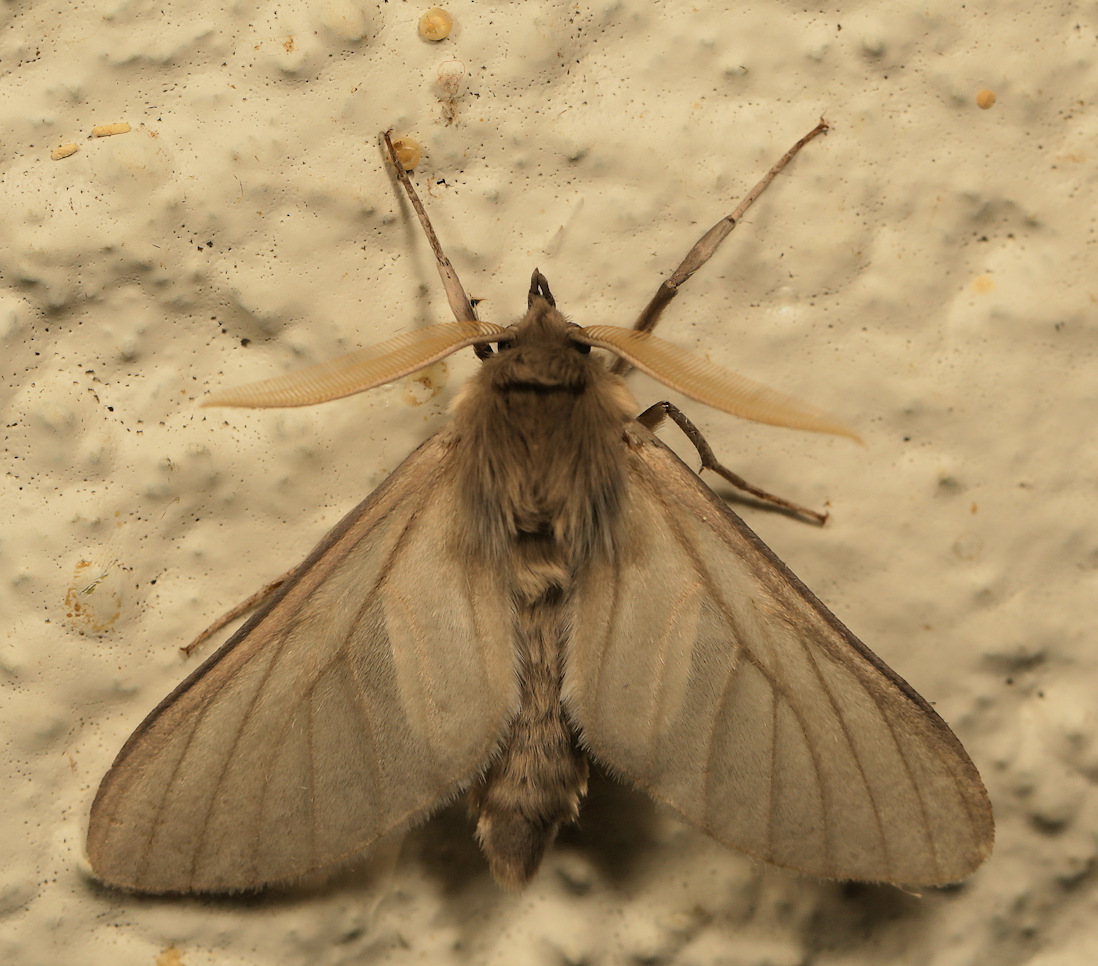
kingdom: Animalia
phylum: Arthropoda
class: Insecta
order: Lepidoptera
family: Erebidae
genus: Apisa
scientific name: Apisa canescens
